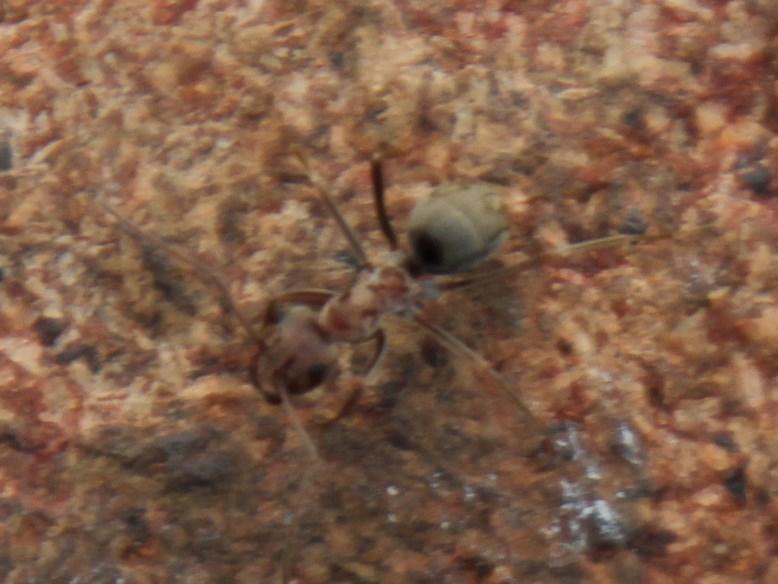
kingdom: Animalia
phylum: Arthropoda
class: Insecta
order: Hymenoptera
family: Formicidae
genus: Anoplolepis
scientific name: Anoplolepis custodiens
